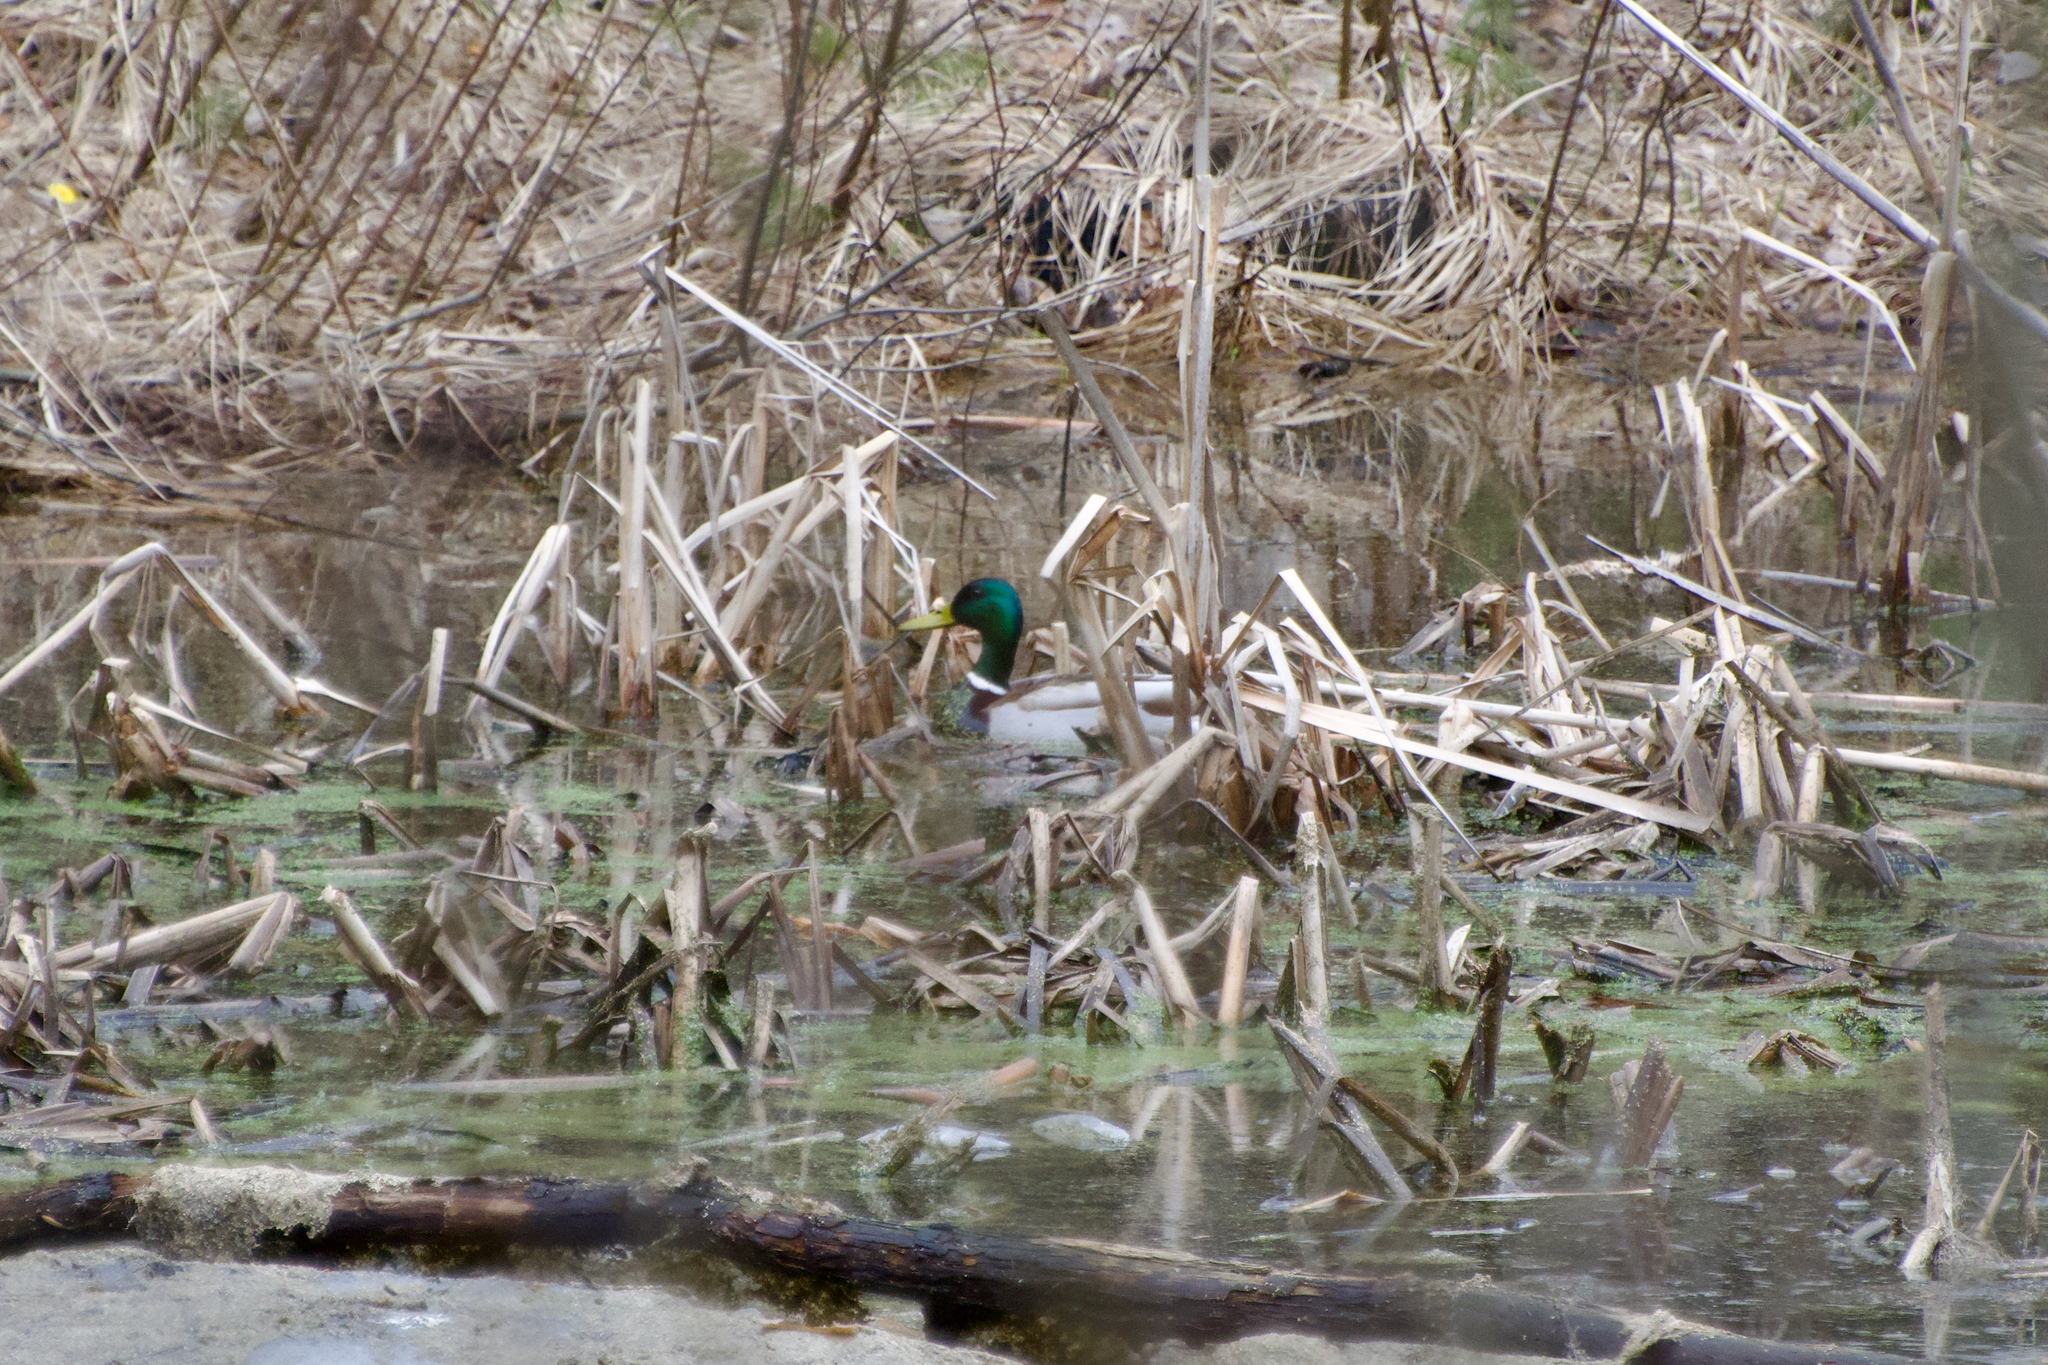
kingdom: Animalia
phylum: Chordata
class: Aves
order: Anseriformes
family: Anatidae
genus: Anas
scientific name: Anas platyrhynchos
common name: Mallard
